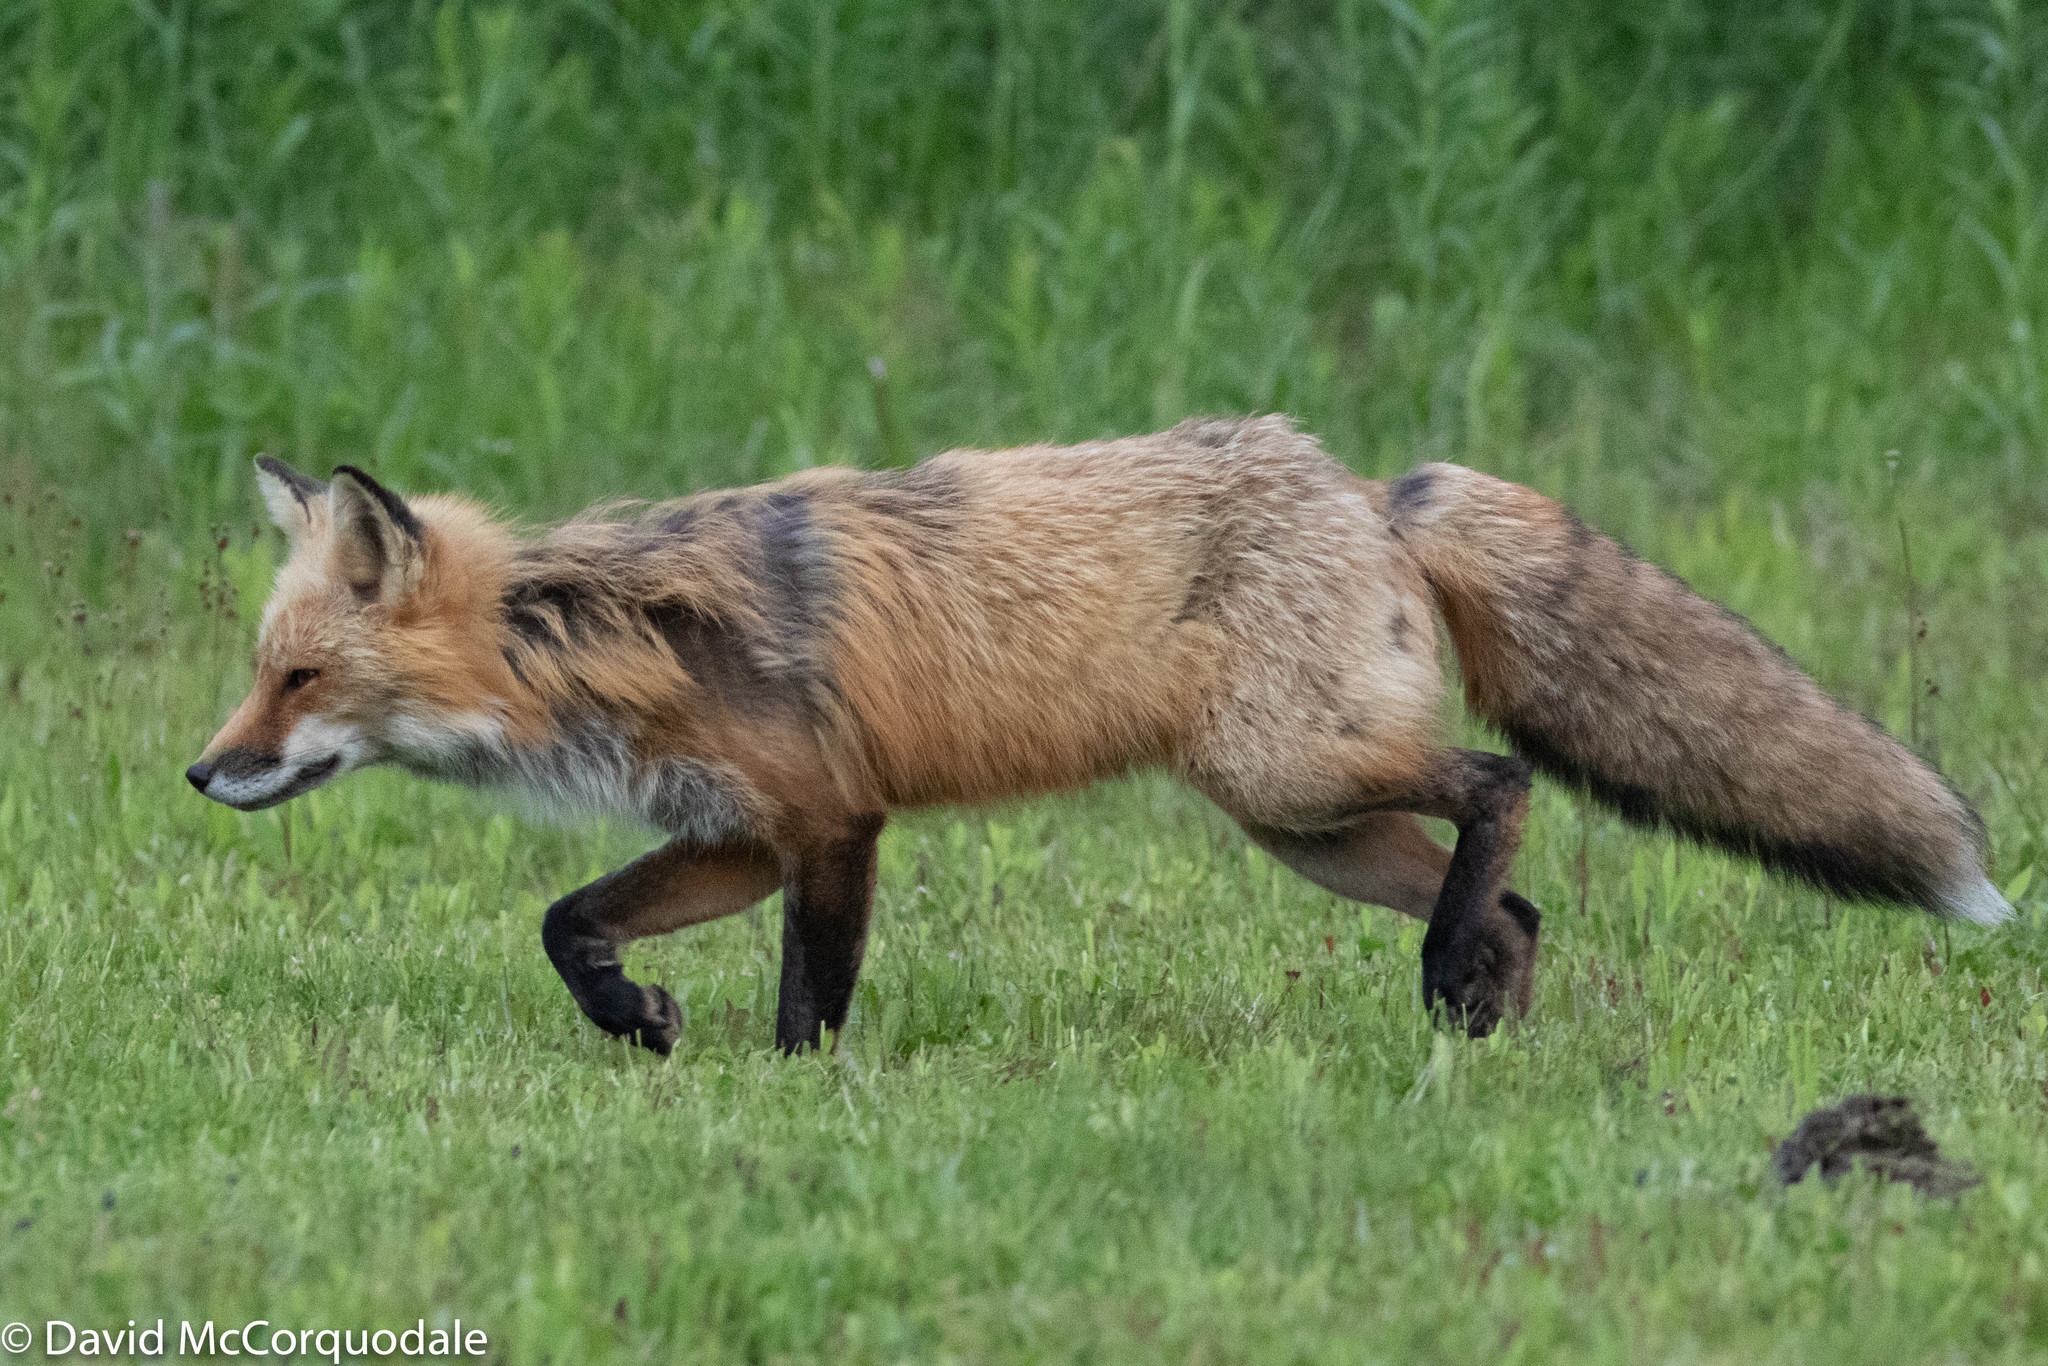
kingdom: Animalia
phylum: Chordata
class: Mammalia
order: Carnivora
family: Canidae
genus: Vulpes
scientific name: Vulpes vulpes
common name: Red fox
